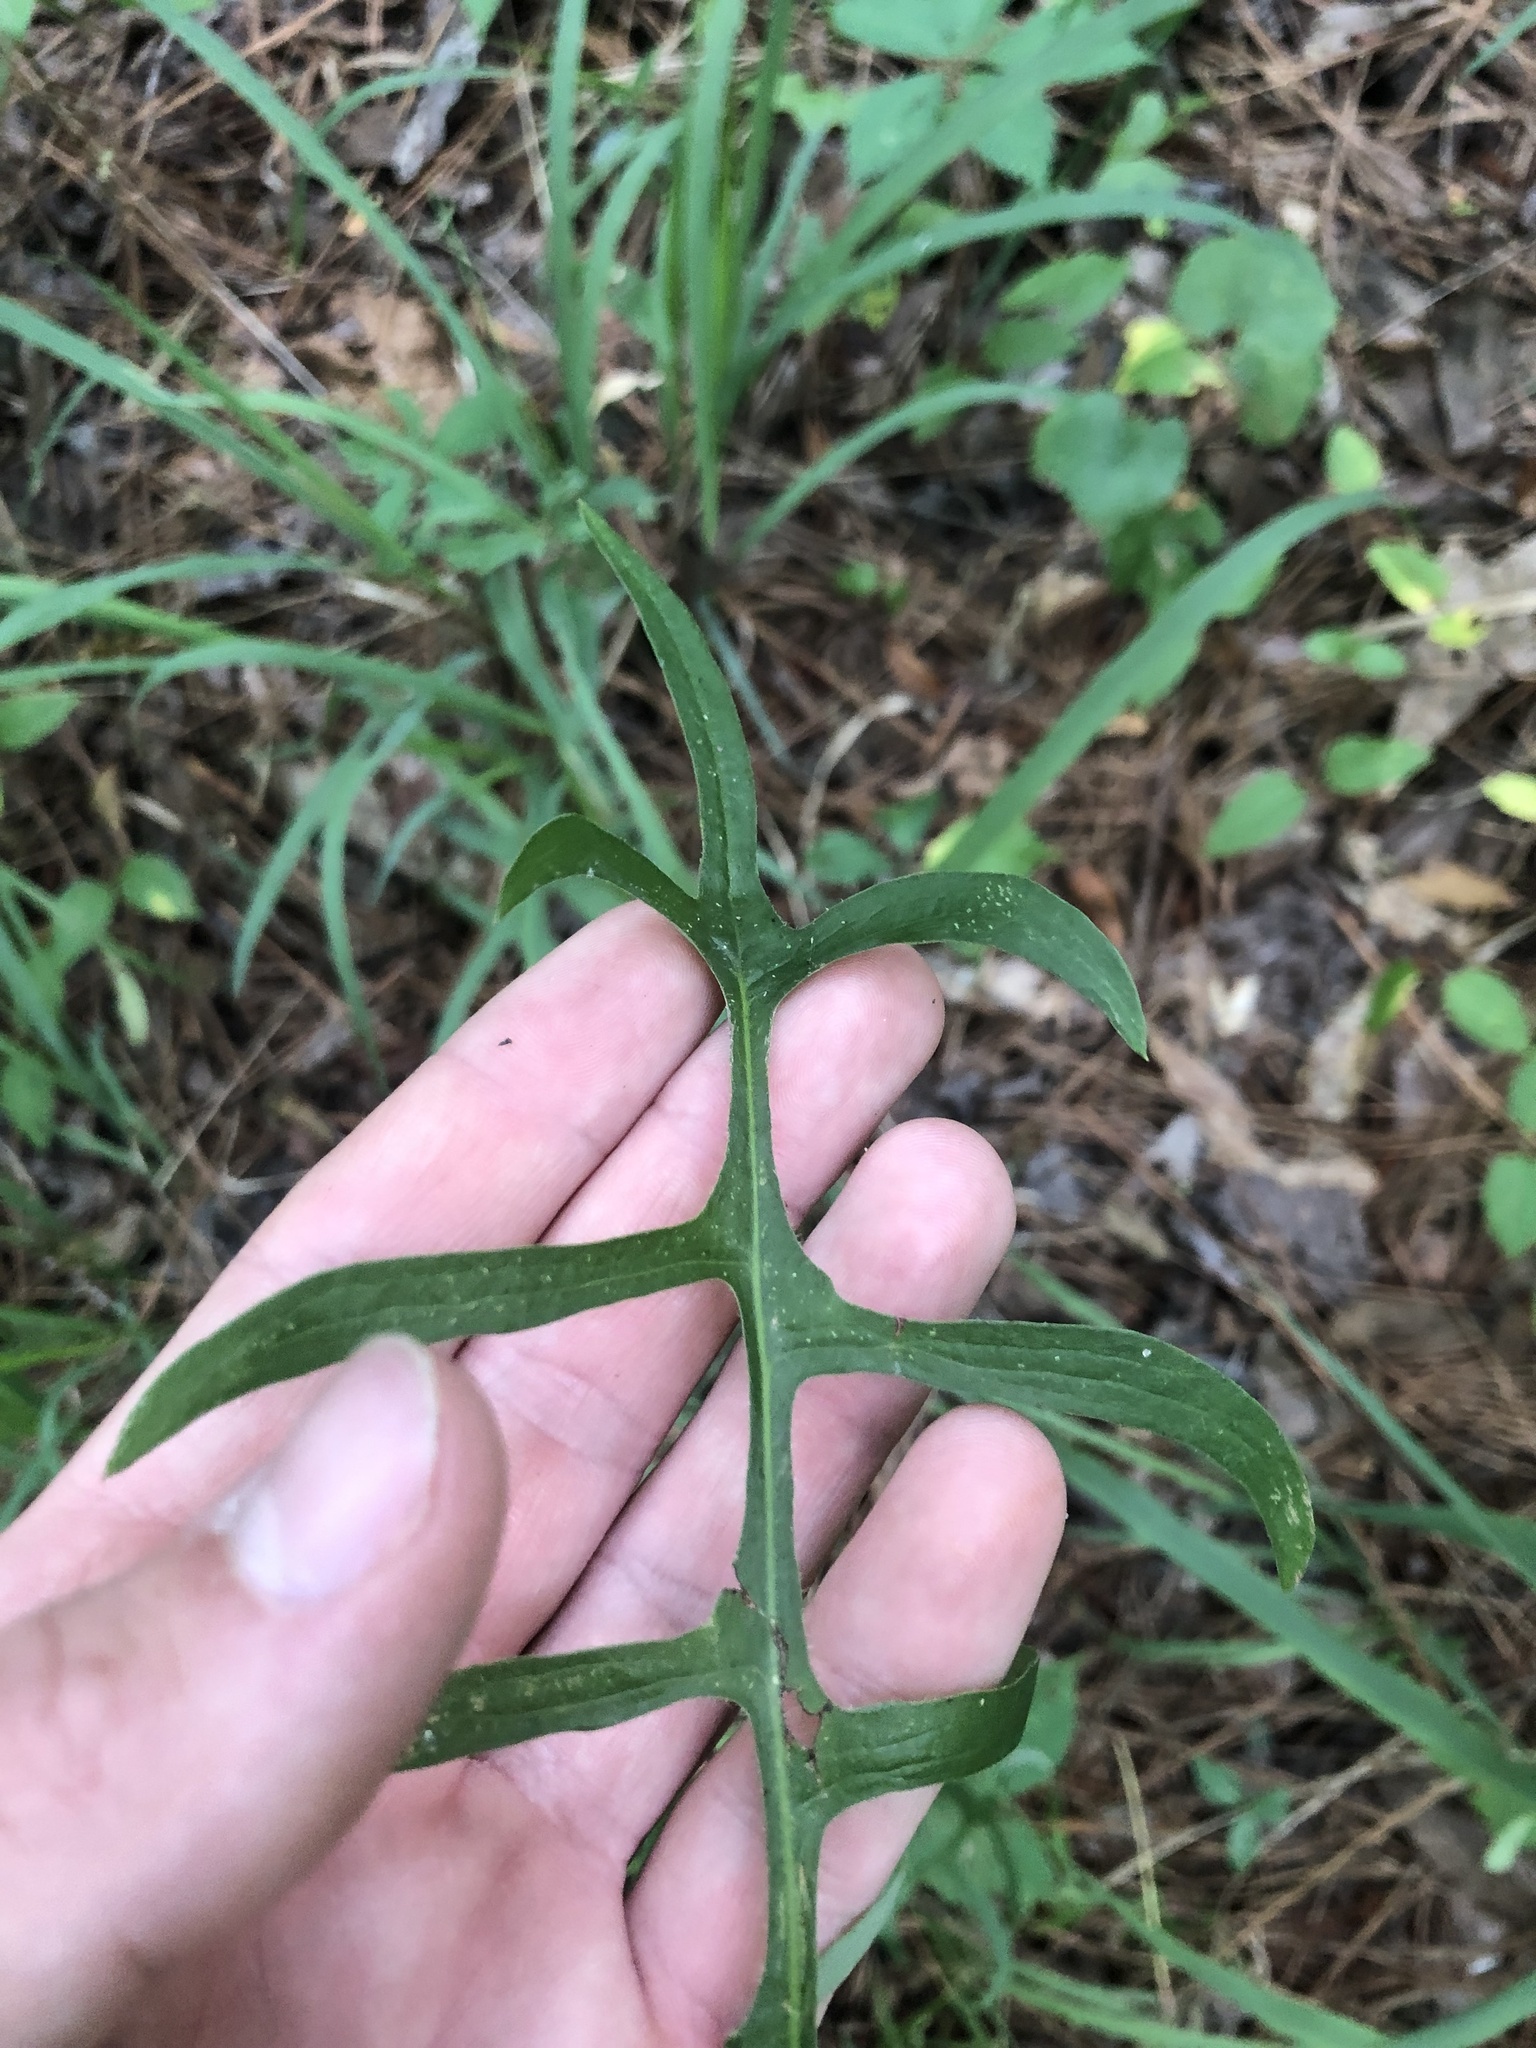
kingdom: Plantae
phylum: Tracheophyta
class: Magnoliopsida
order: Asterales
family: Asteraceae
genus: Lactuca
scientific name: Lactuca graminifolia
